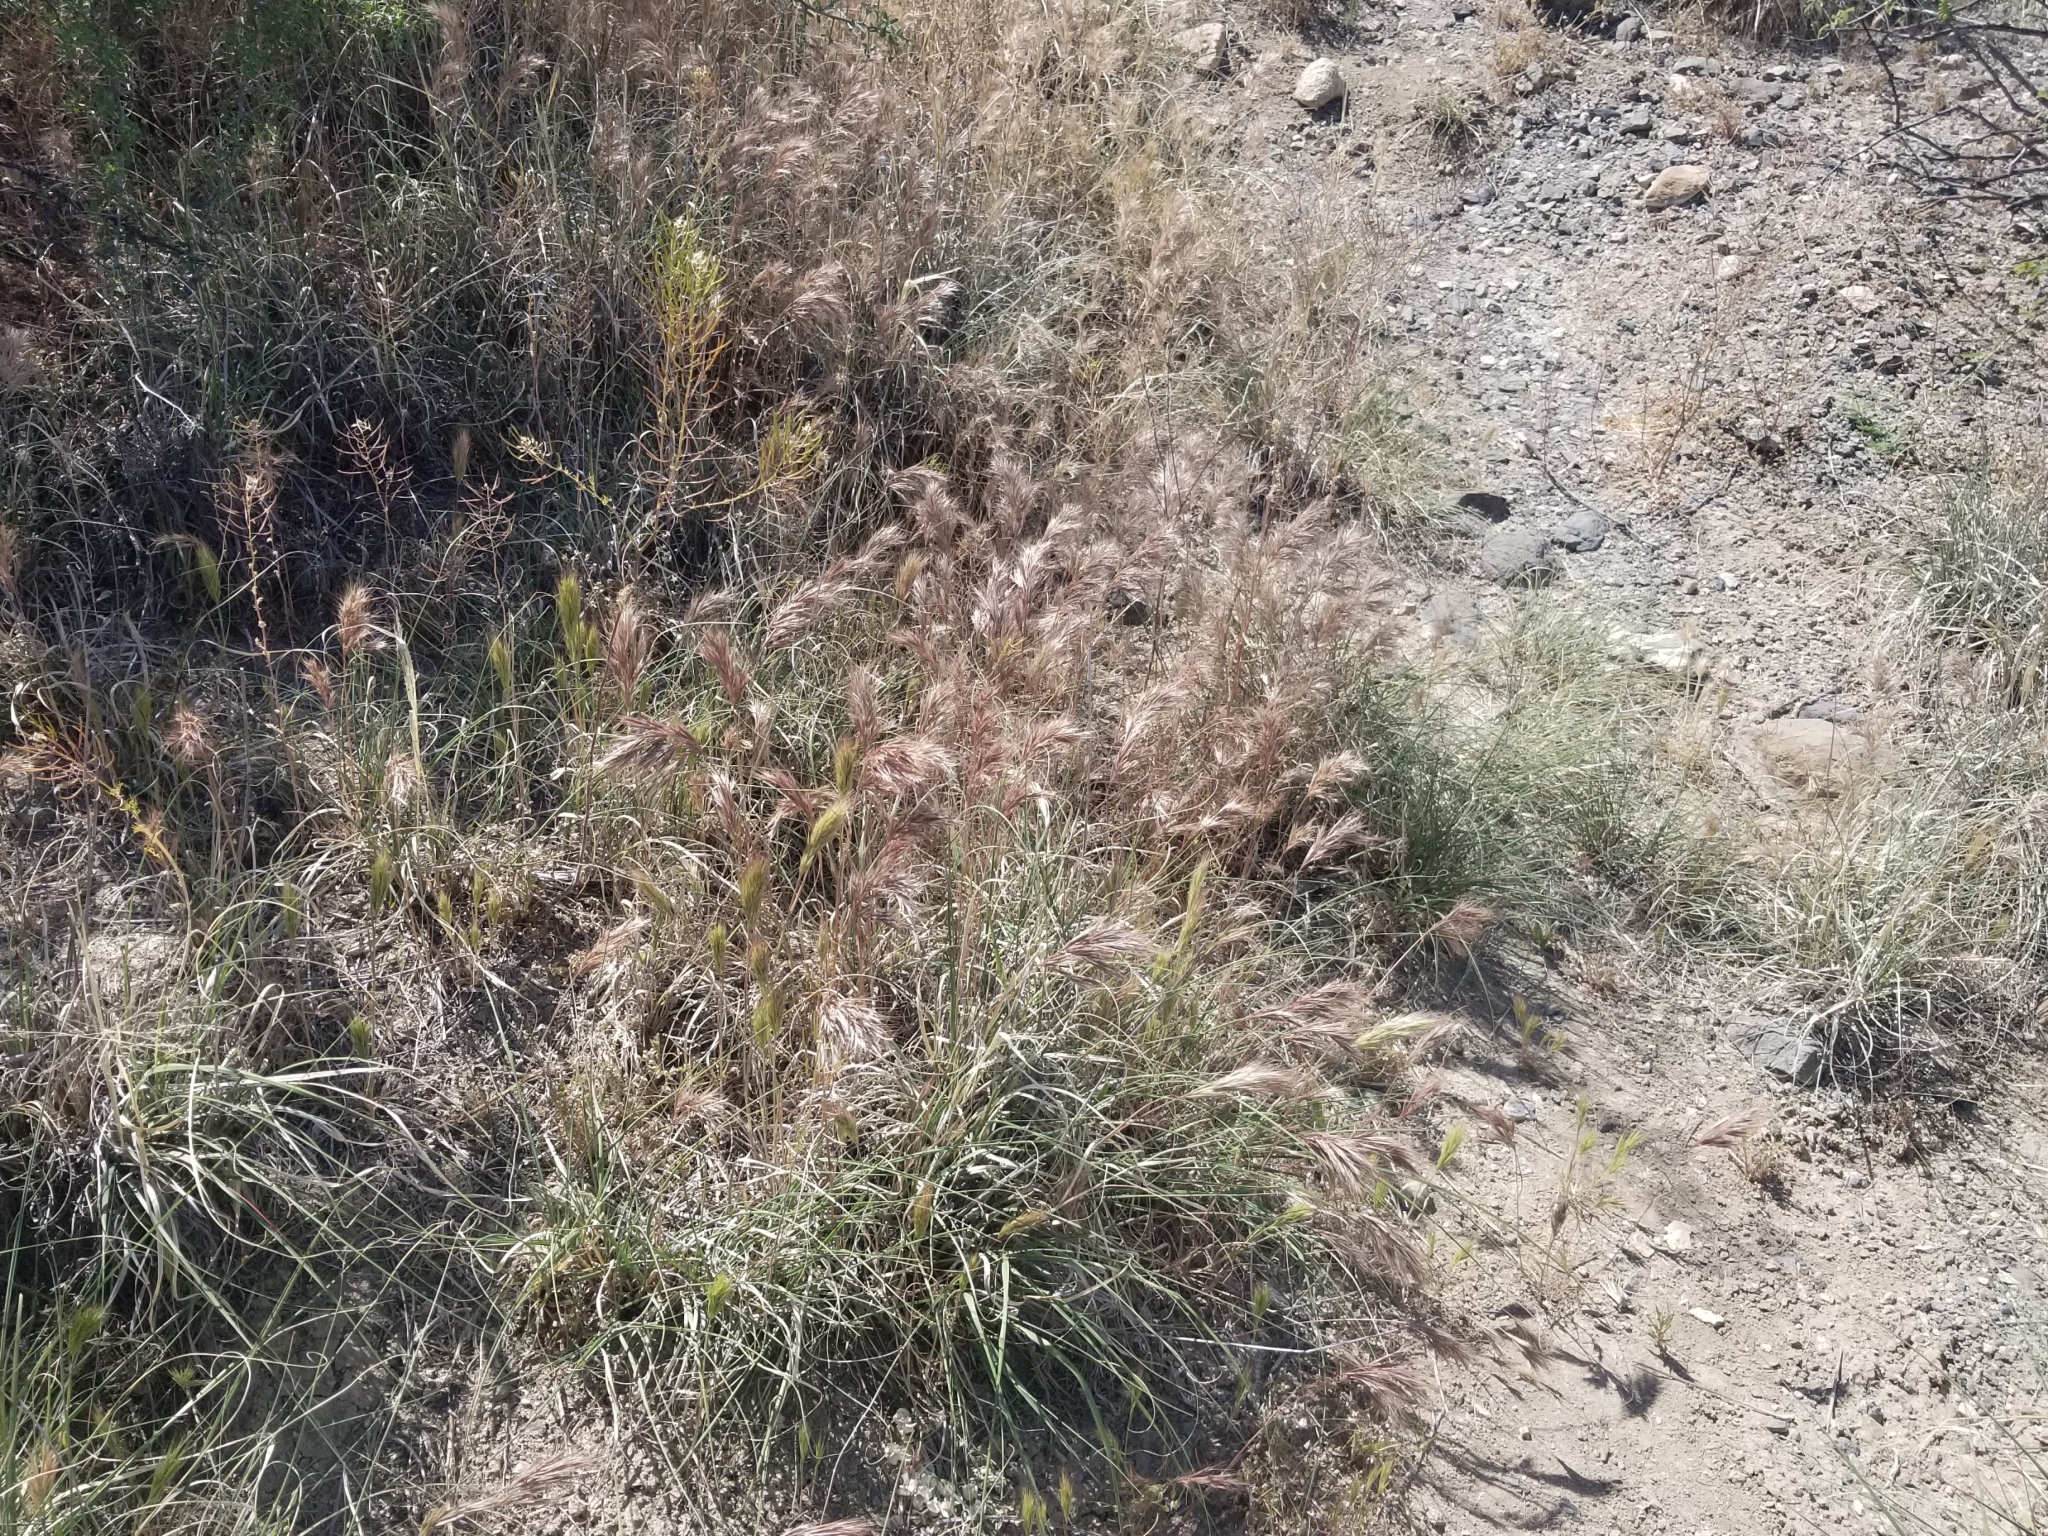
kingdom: Plantae
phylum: Tracheophyta
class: Liliopsida
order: Poales
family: Poaceae
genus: Bromus
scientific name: Bromus rubens
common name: Red brome
